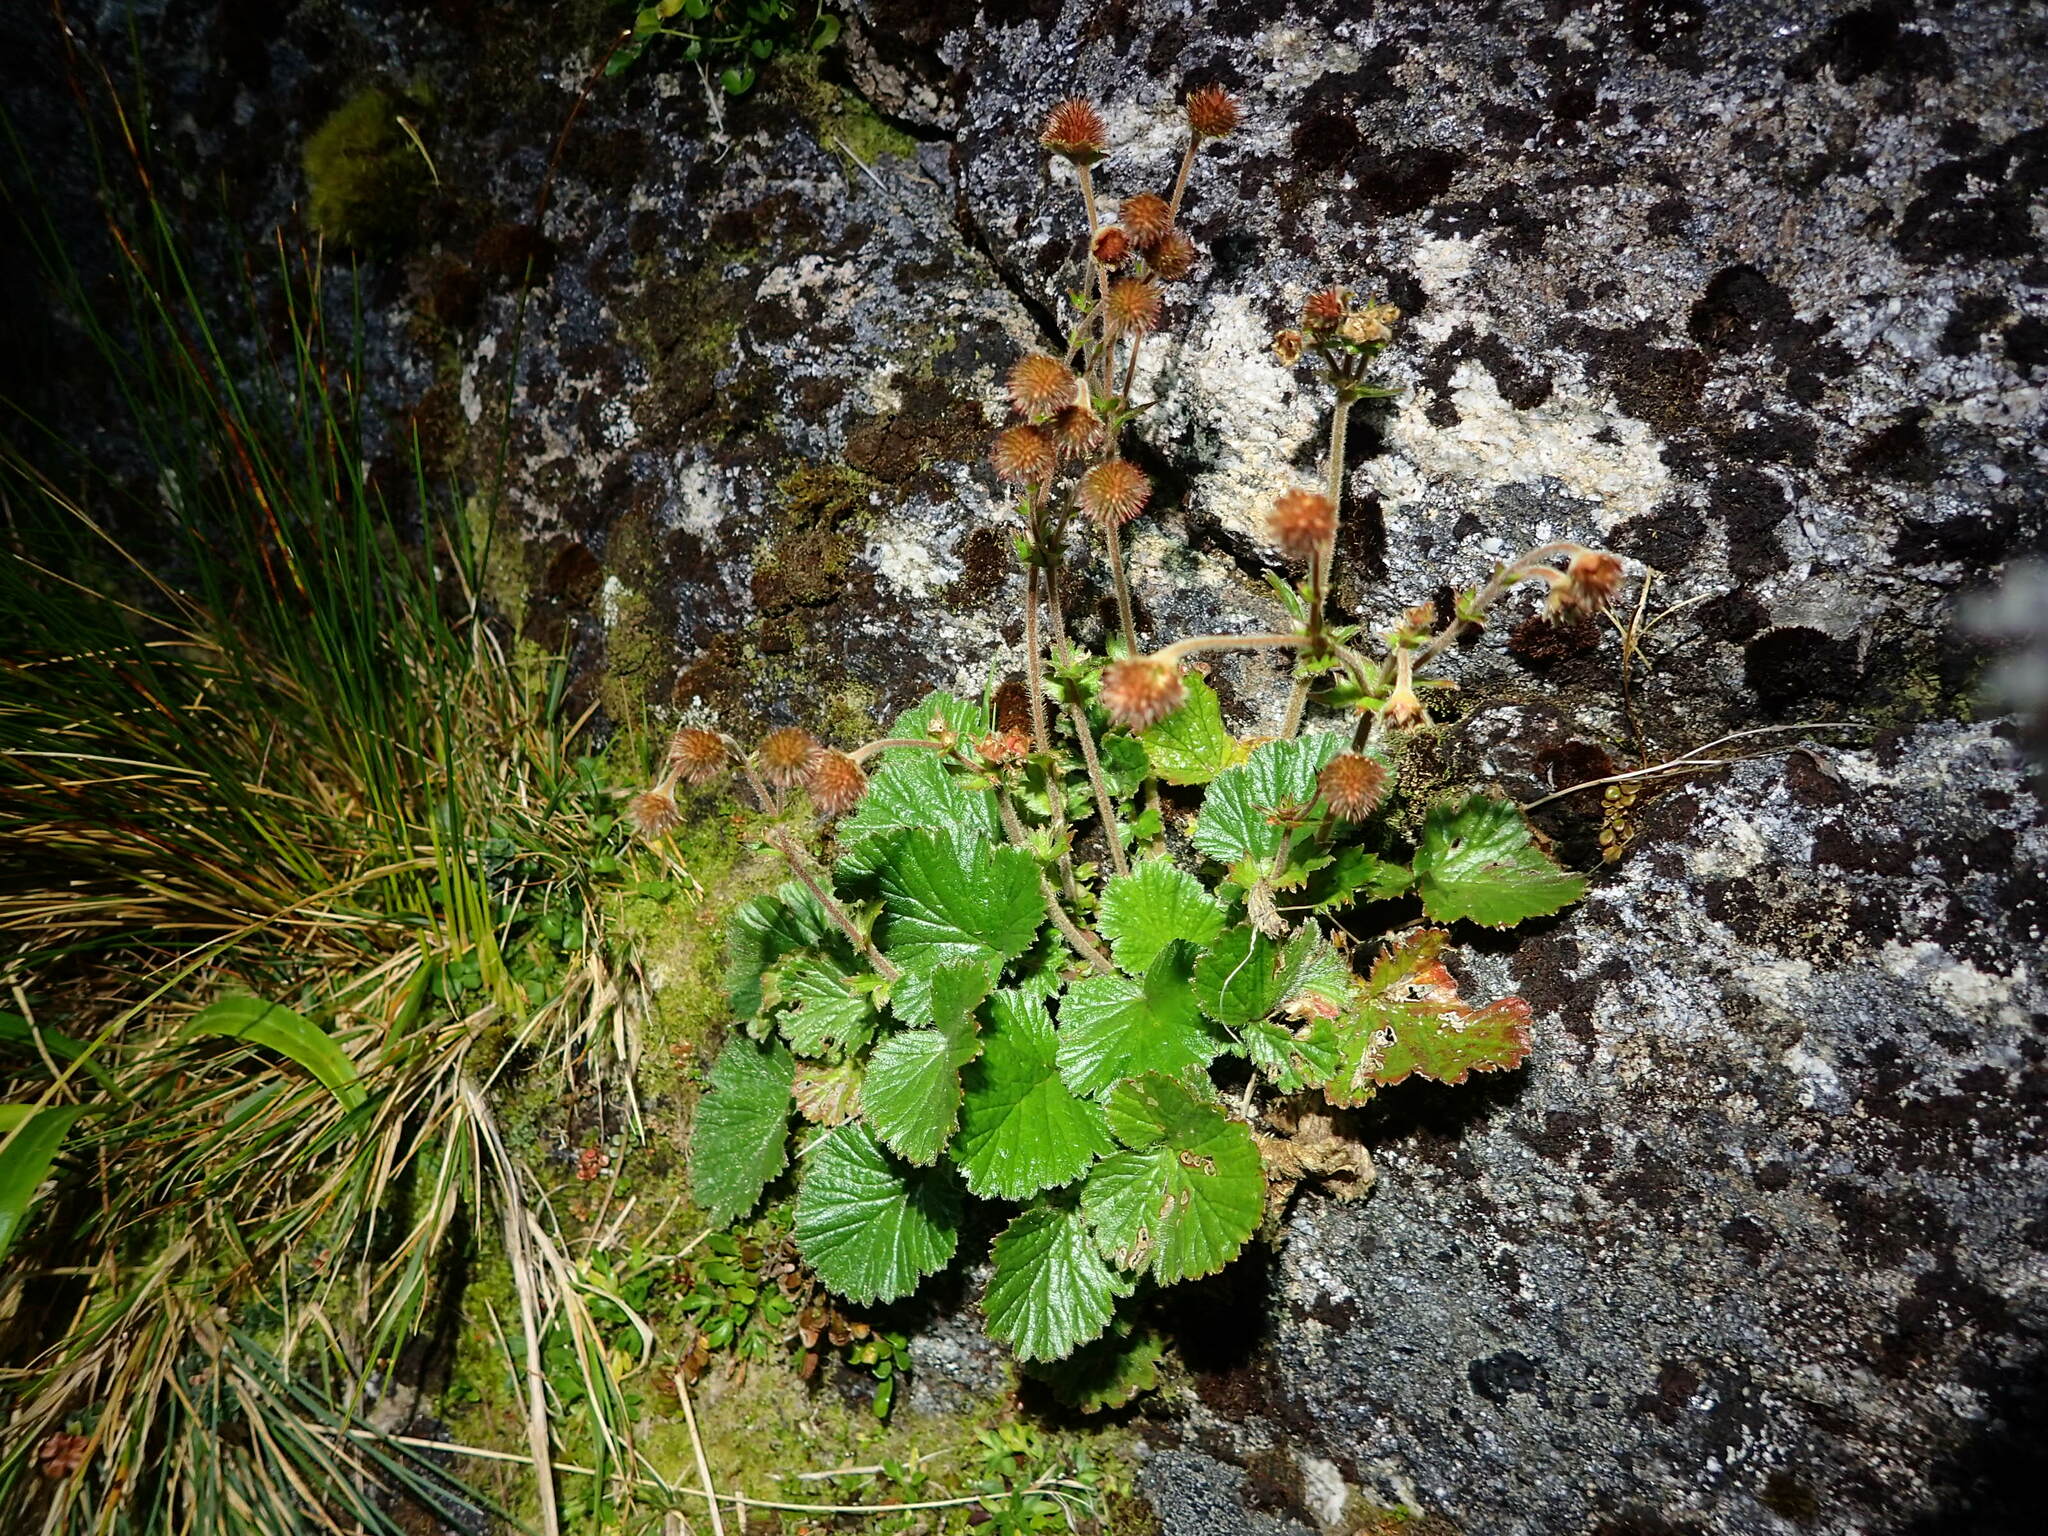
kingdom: Plantae
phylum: Tracheophyta
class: Magnoliopsida
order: Rosales
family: Rosaceae
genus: Geum
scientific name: Geum cockaynei
